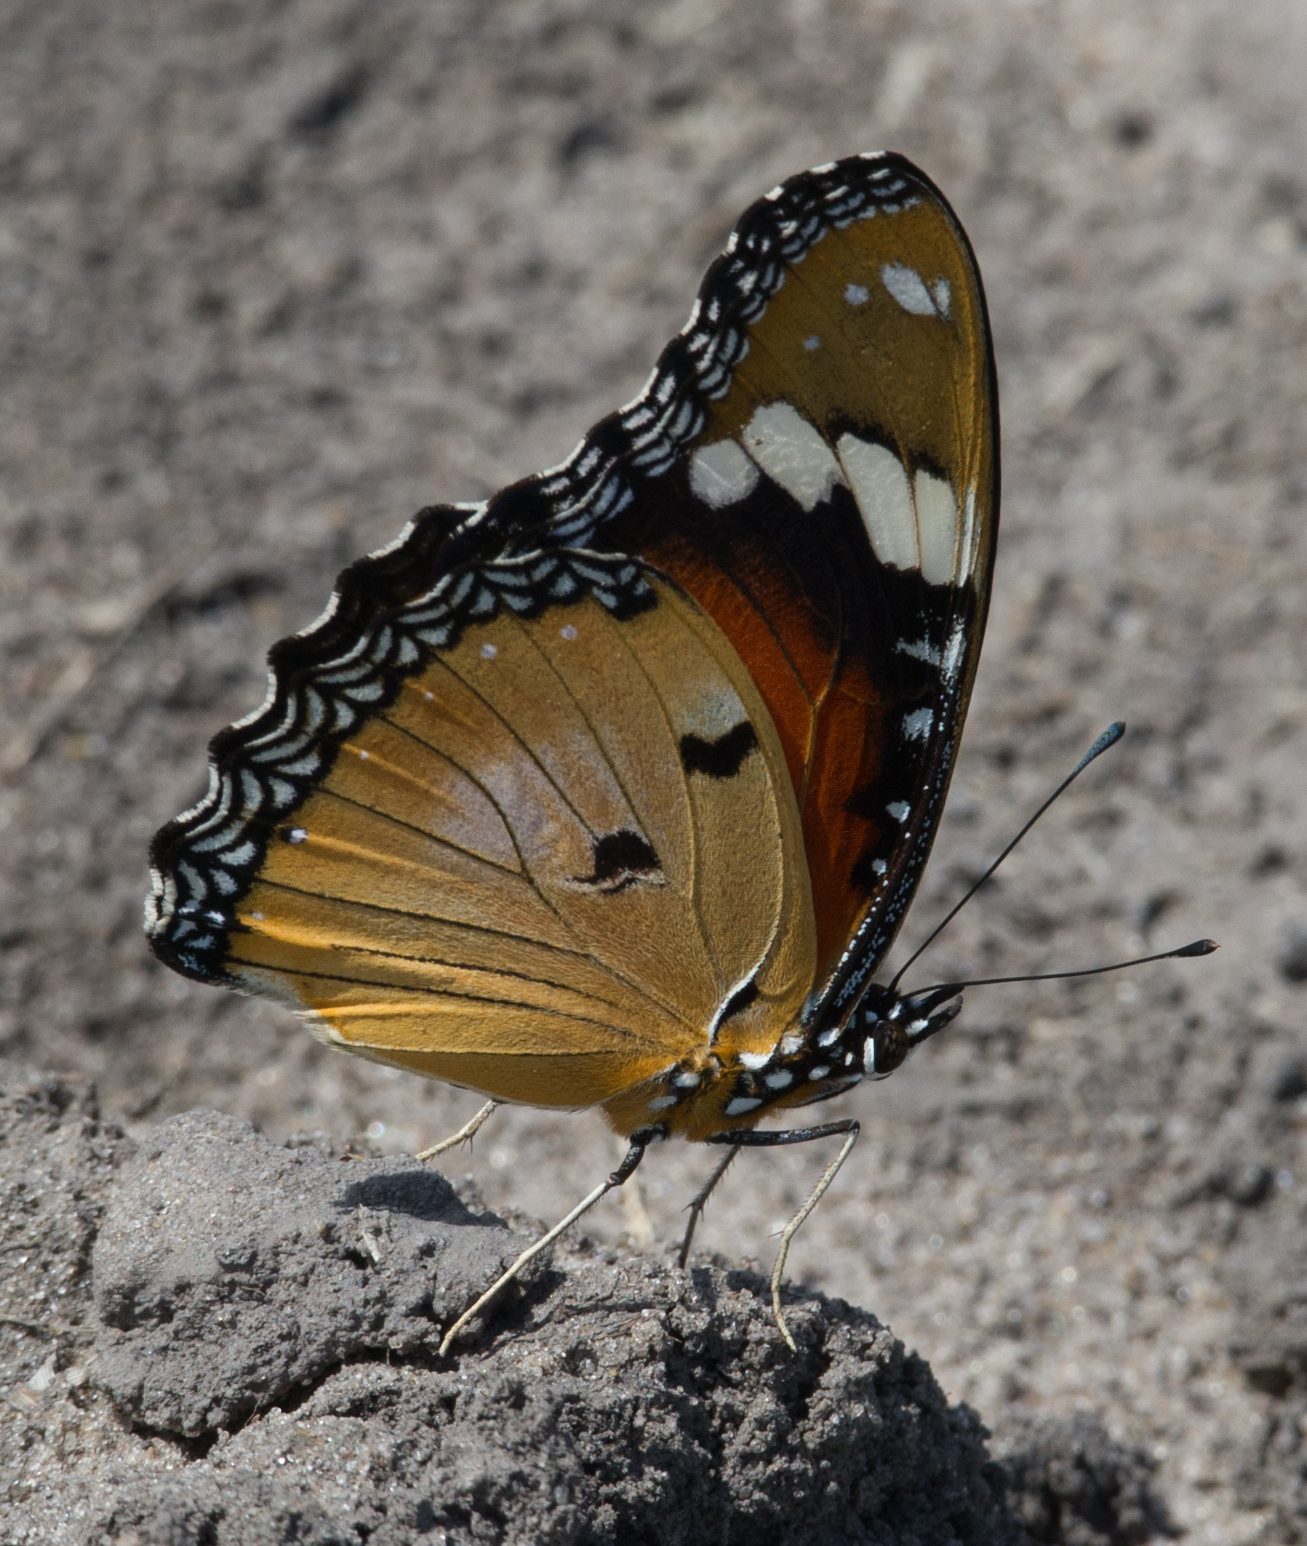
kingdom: Animalia
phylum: Arthropoda
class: Insecta
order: Lepidoptera
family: Nymphalidae
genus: Hypolimnas
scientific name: Hypolimnas misippus
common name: False plain tiger
